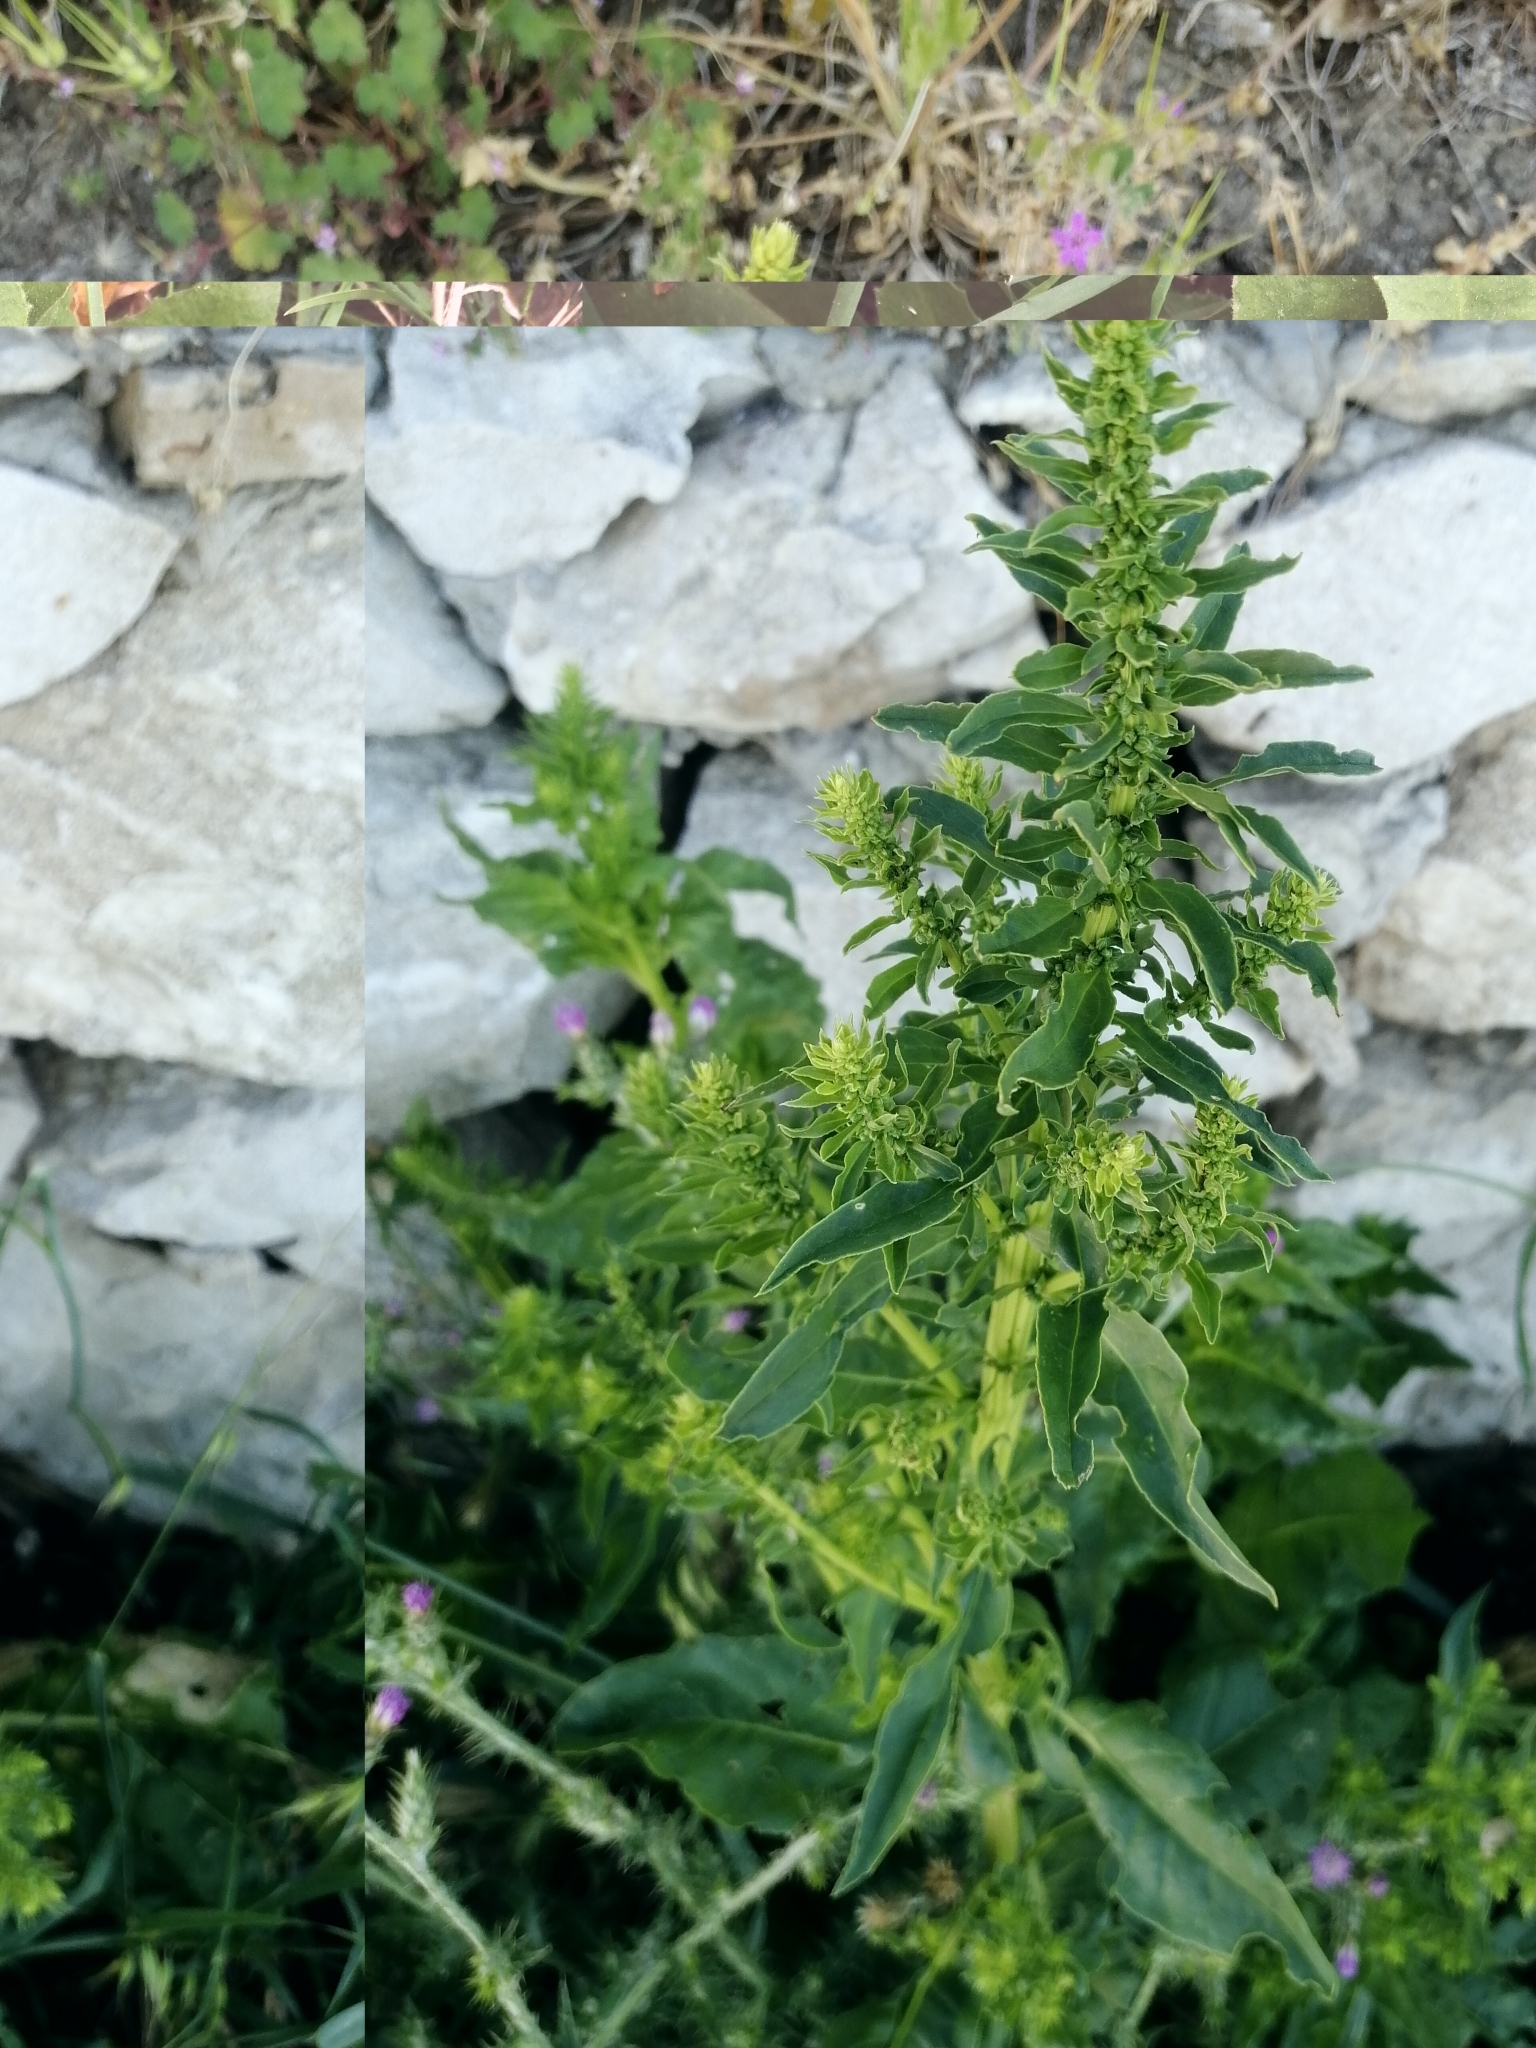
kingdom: Plantae
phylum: Tracheophyta
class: Magnoliopsida
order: Caryophyllales
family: Amaranthaceae
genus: Beta
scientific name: Beta vulgaris
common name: Beet
